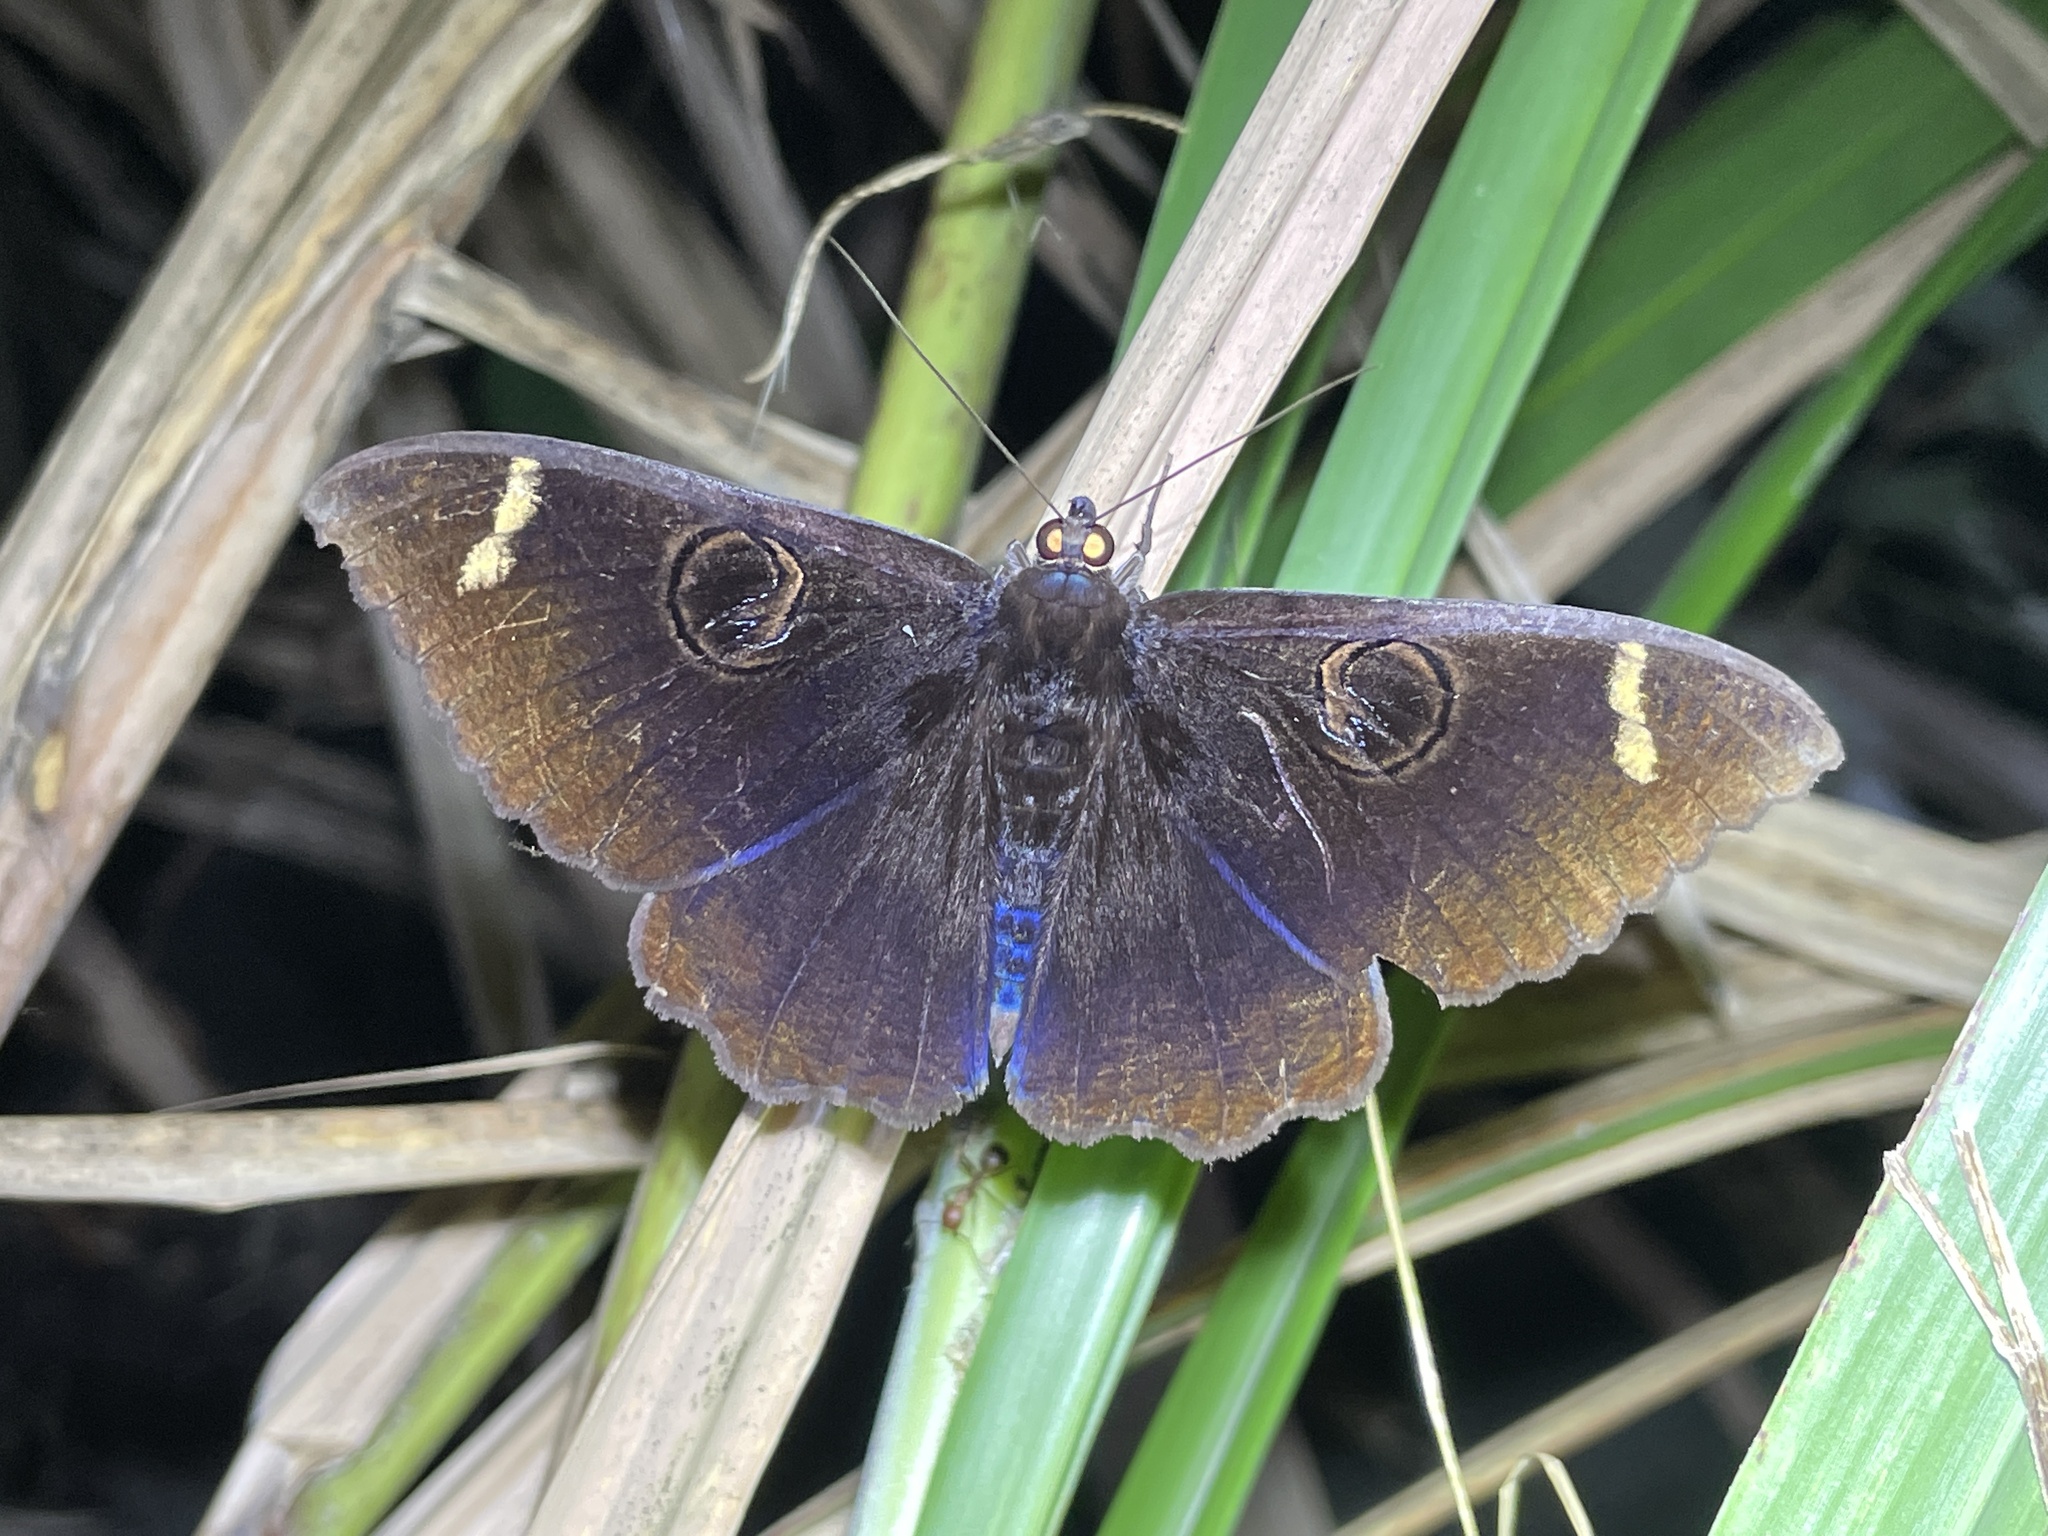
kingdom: Animalia
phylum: Arthropoda
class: Insecta
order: Lepidoptera
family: Erebidae
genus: Erebus
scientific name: Erebus hieroglyphica
